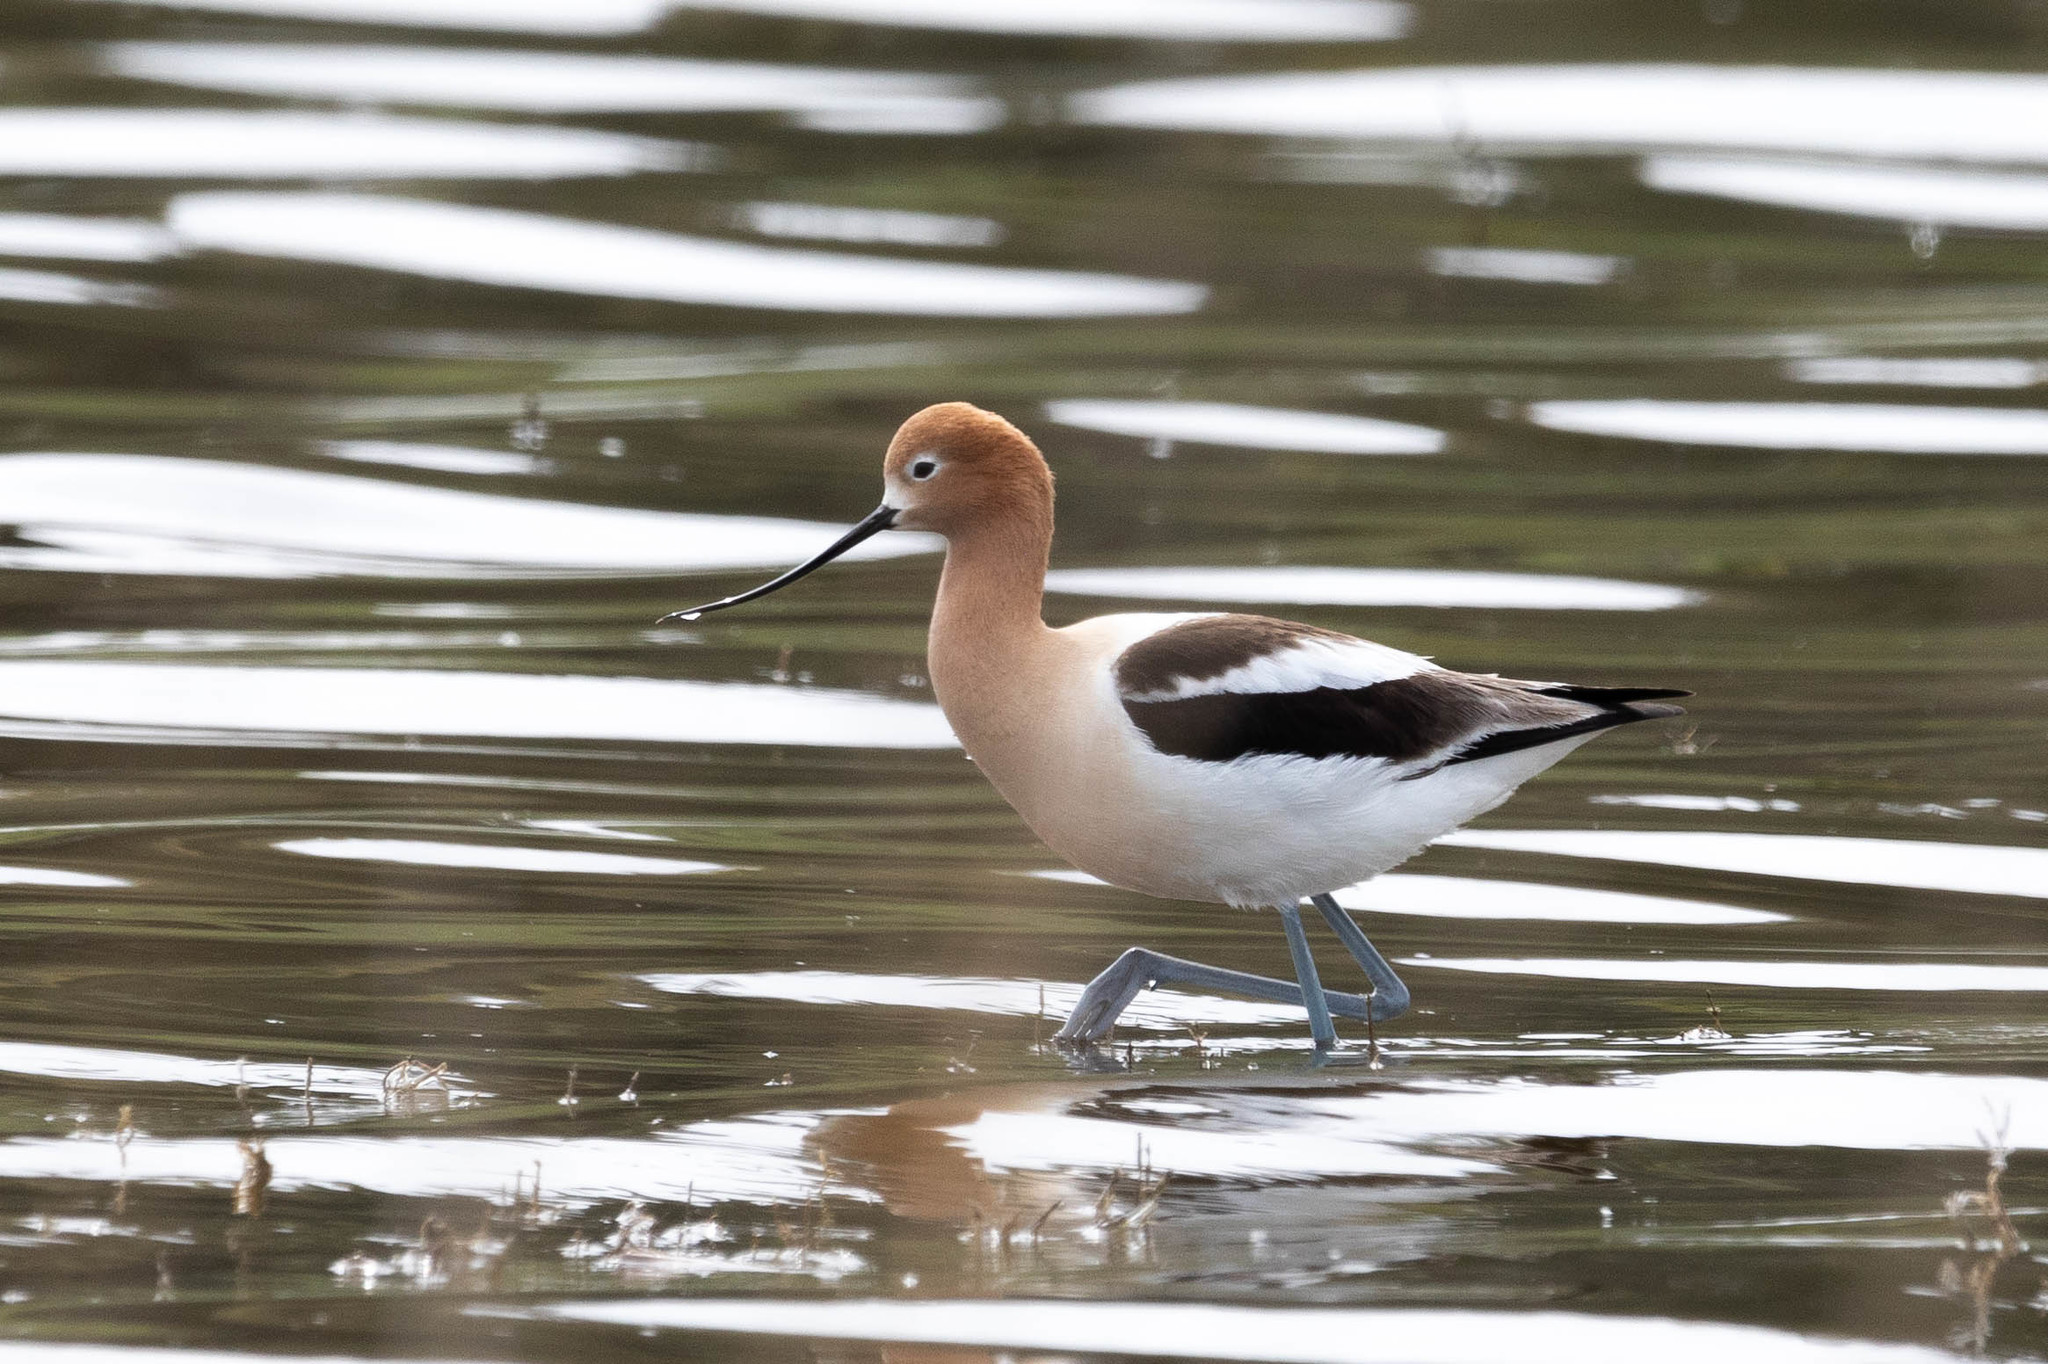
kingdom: Animalia
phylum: Chordata
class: Aves
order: Charadriiformes
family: Recurvirostridae
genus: Recurvirostra
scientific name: Recurvirostra americana
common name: American avocet
